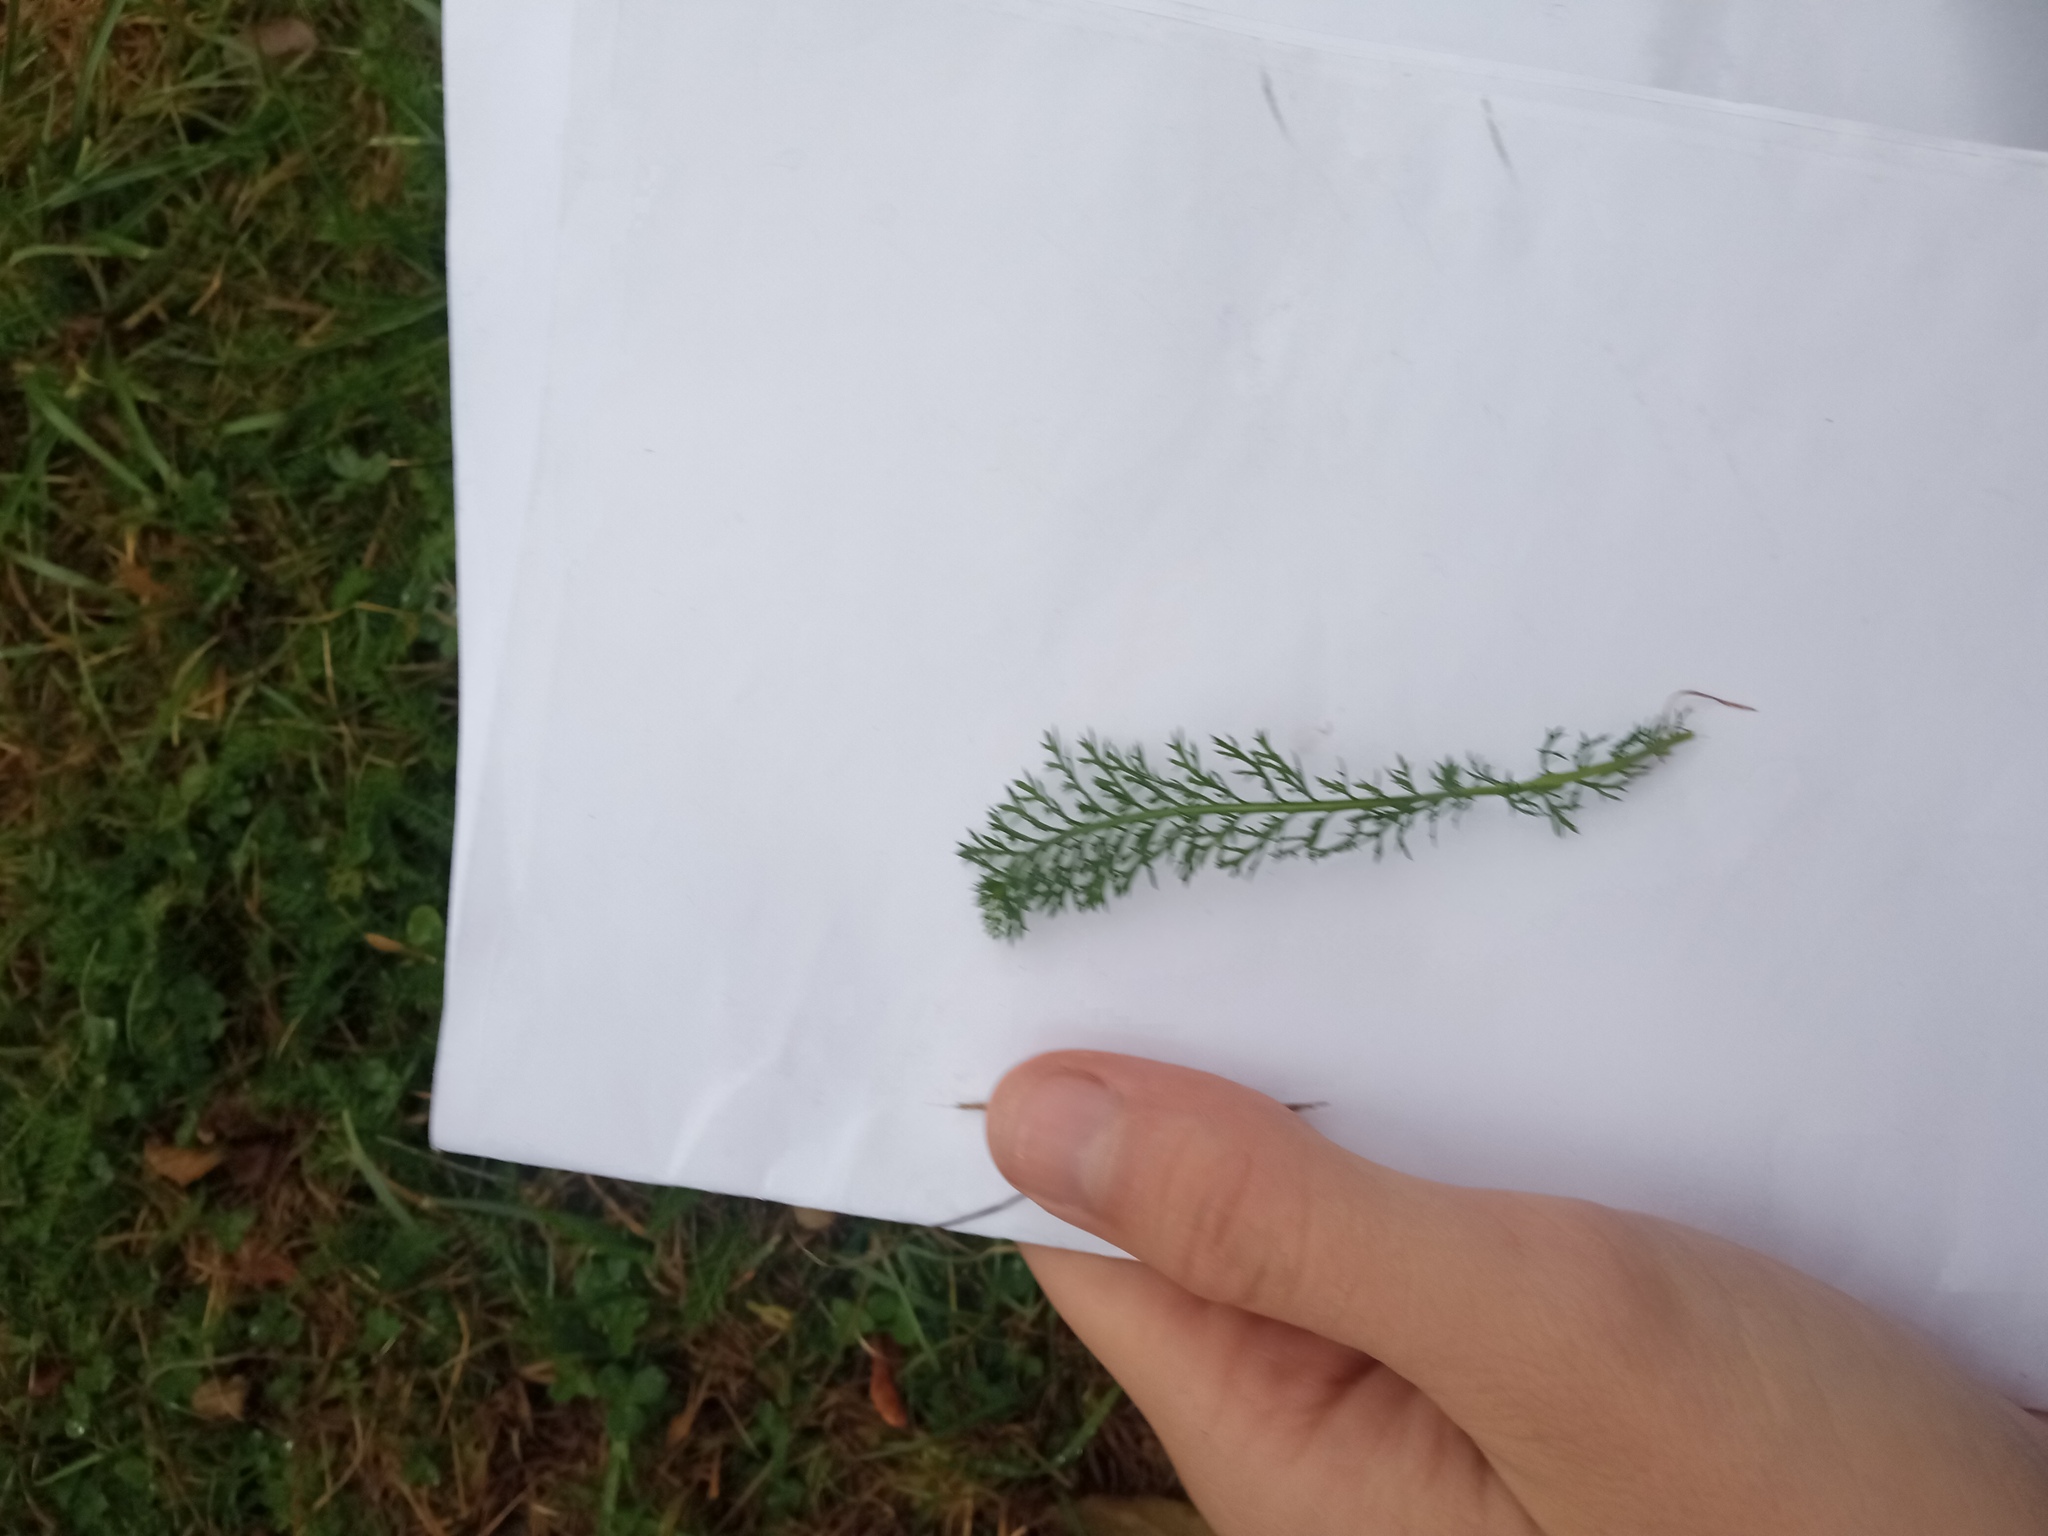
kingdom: Plantae
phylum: Tracheophyta
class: Magnoliopsida
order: Asterales
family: Asteraceae
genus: Achillea
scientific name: Achillea millefolium
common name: Yarrow
